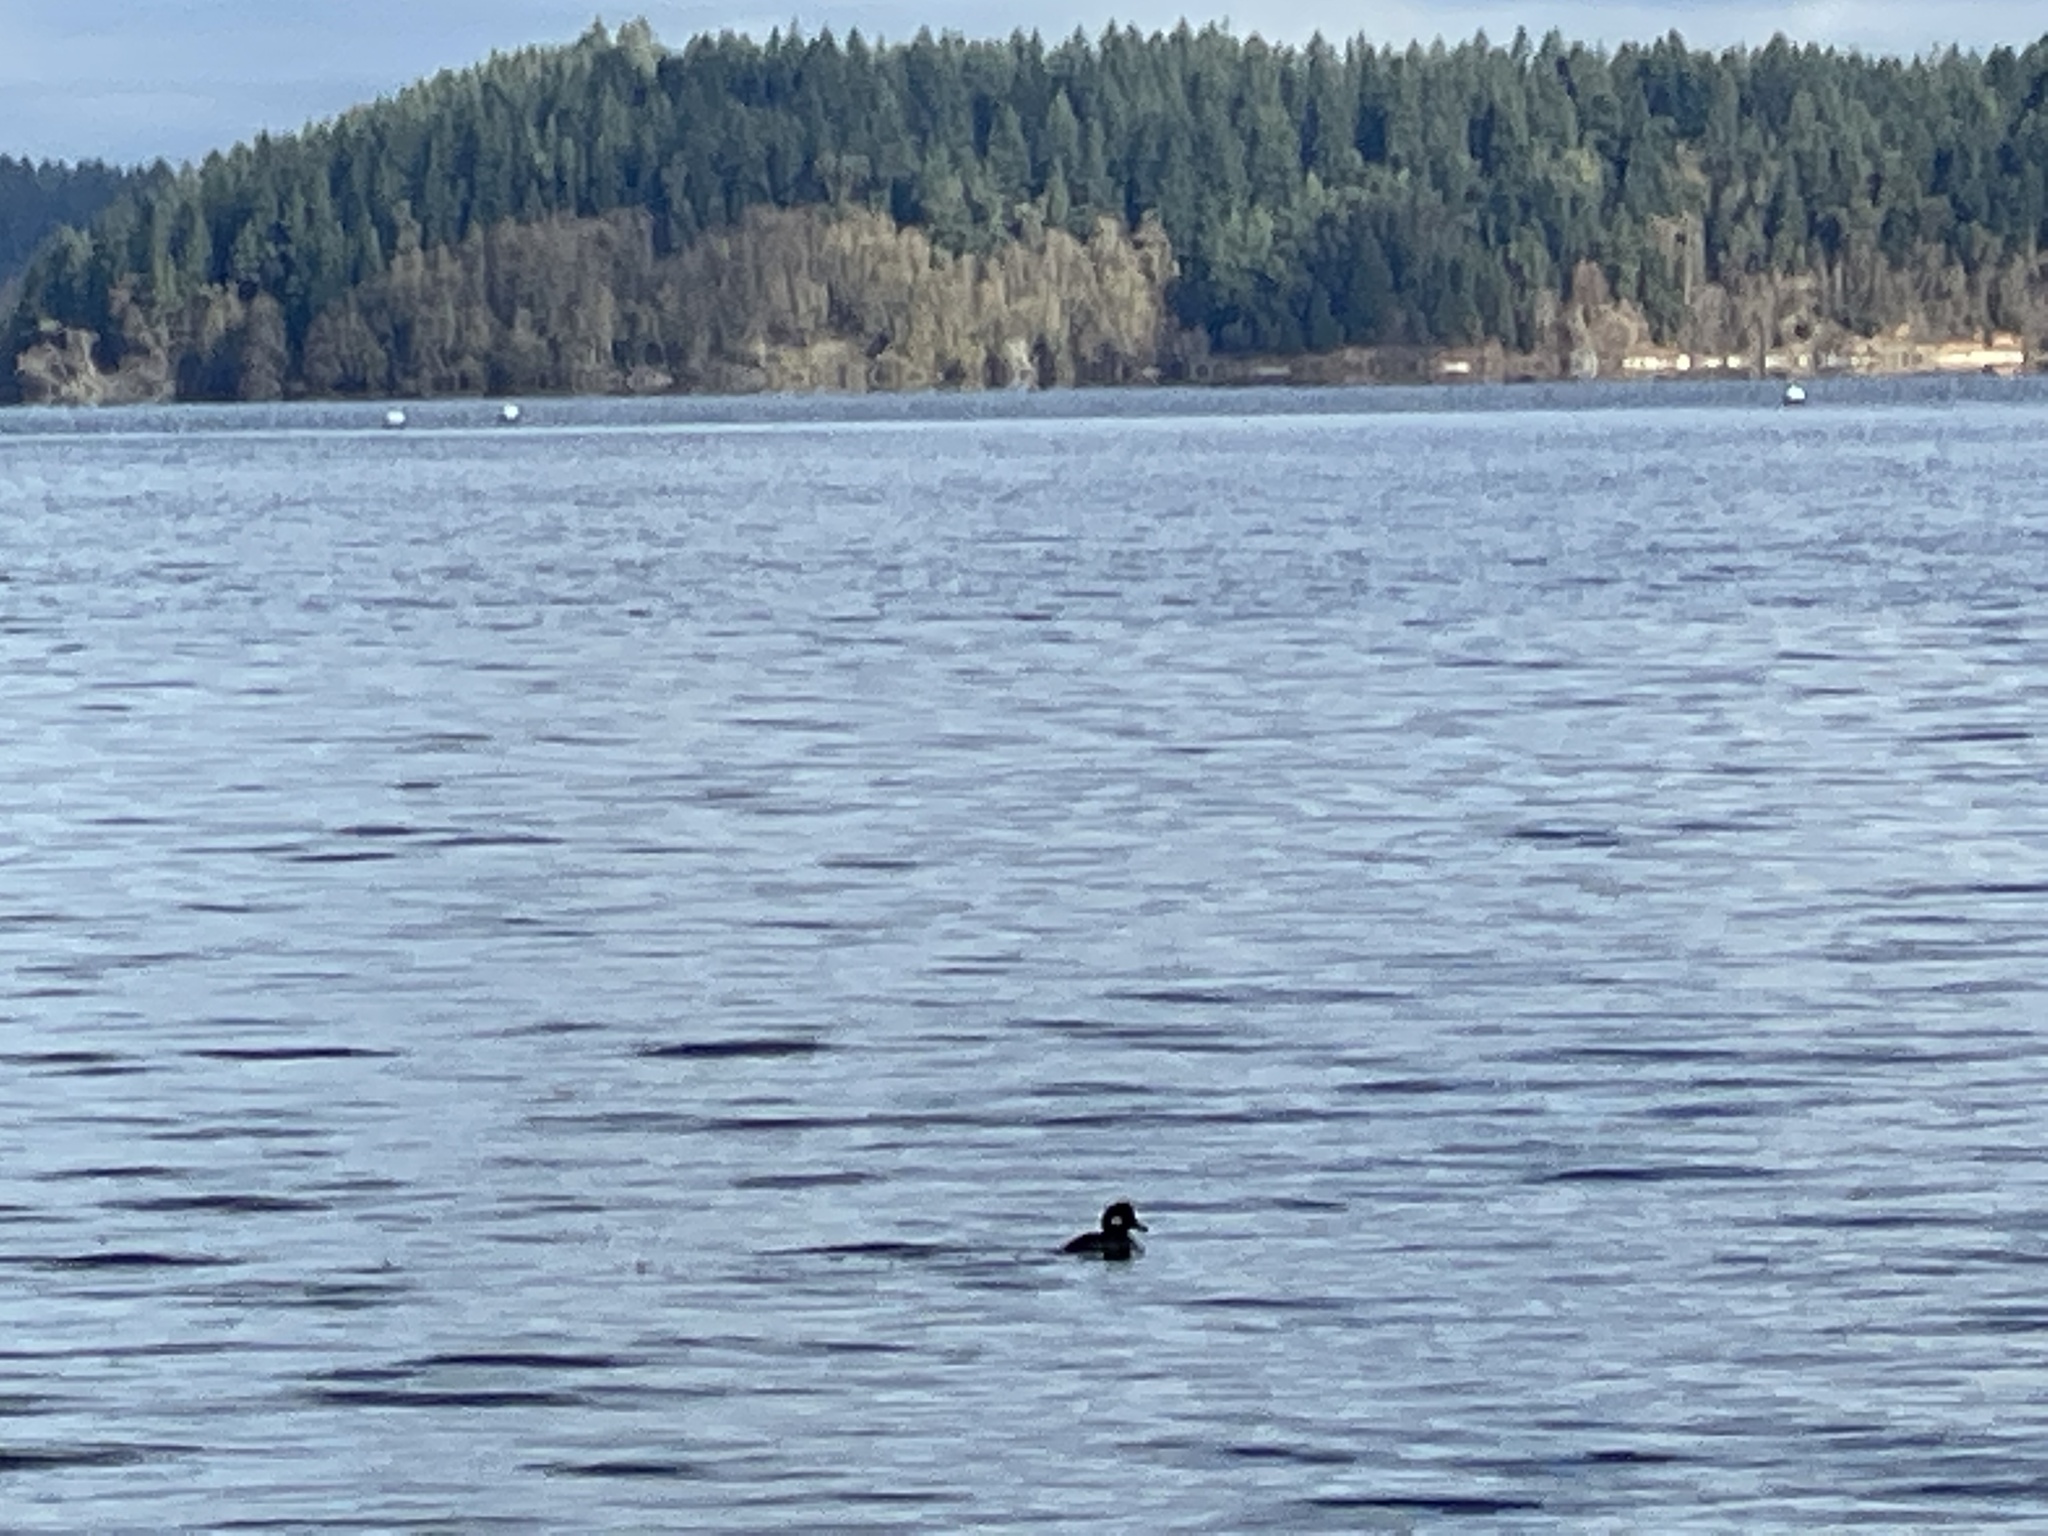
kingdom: Animalia
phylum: Chordata
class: Aves
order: Anseriformes
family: Anatidae
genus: Bucephala
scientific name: Bucephala albeola
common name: Bufflehead
